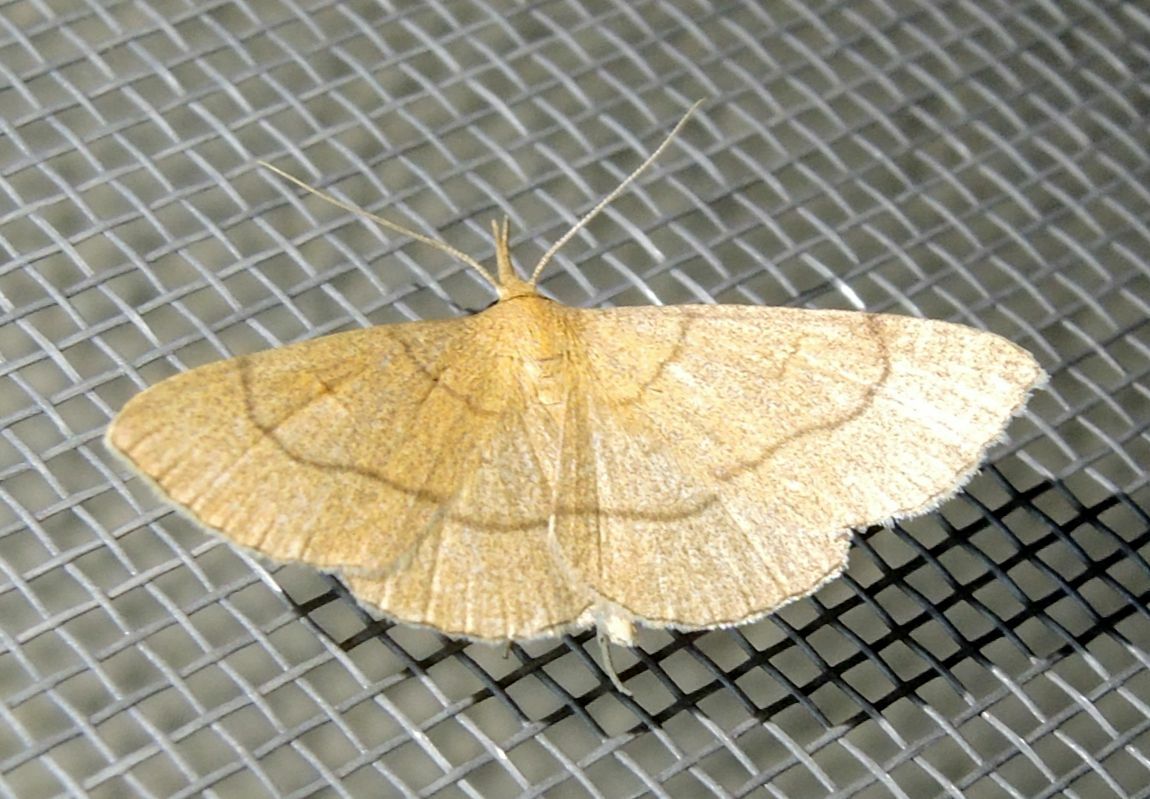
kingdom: Animalia
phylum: Arthropoda
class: Insecta
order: Lepidoptera
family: Erebidae
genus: Paracolax
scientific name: Paracolax tristalis
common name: Clay fan-foot
